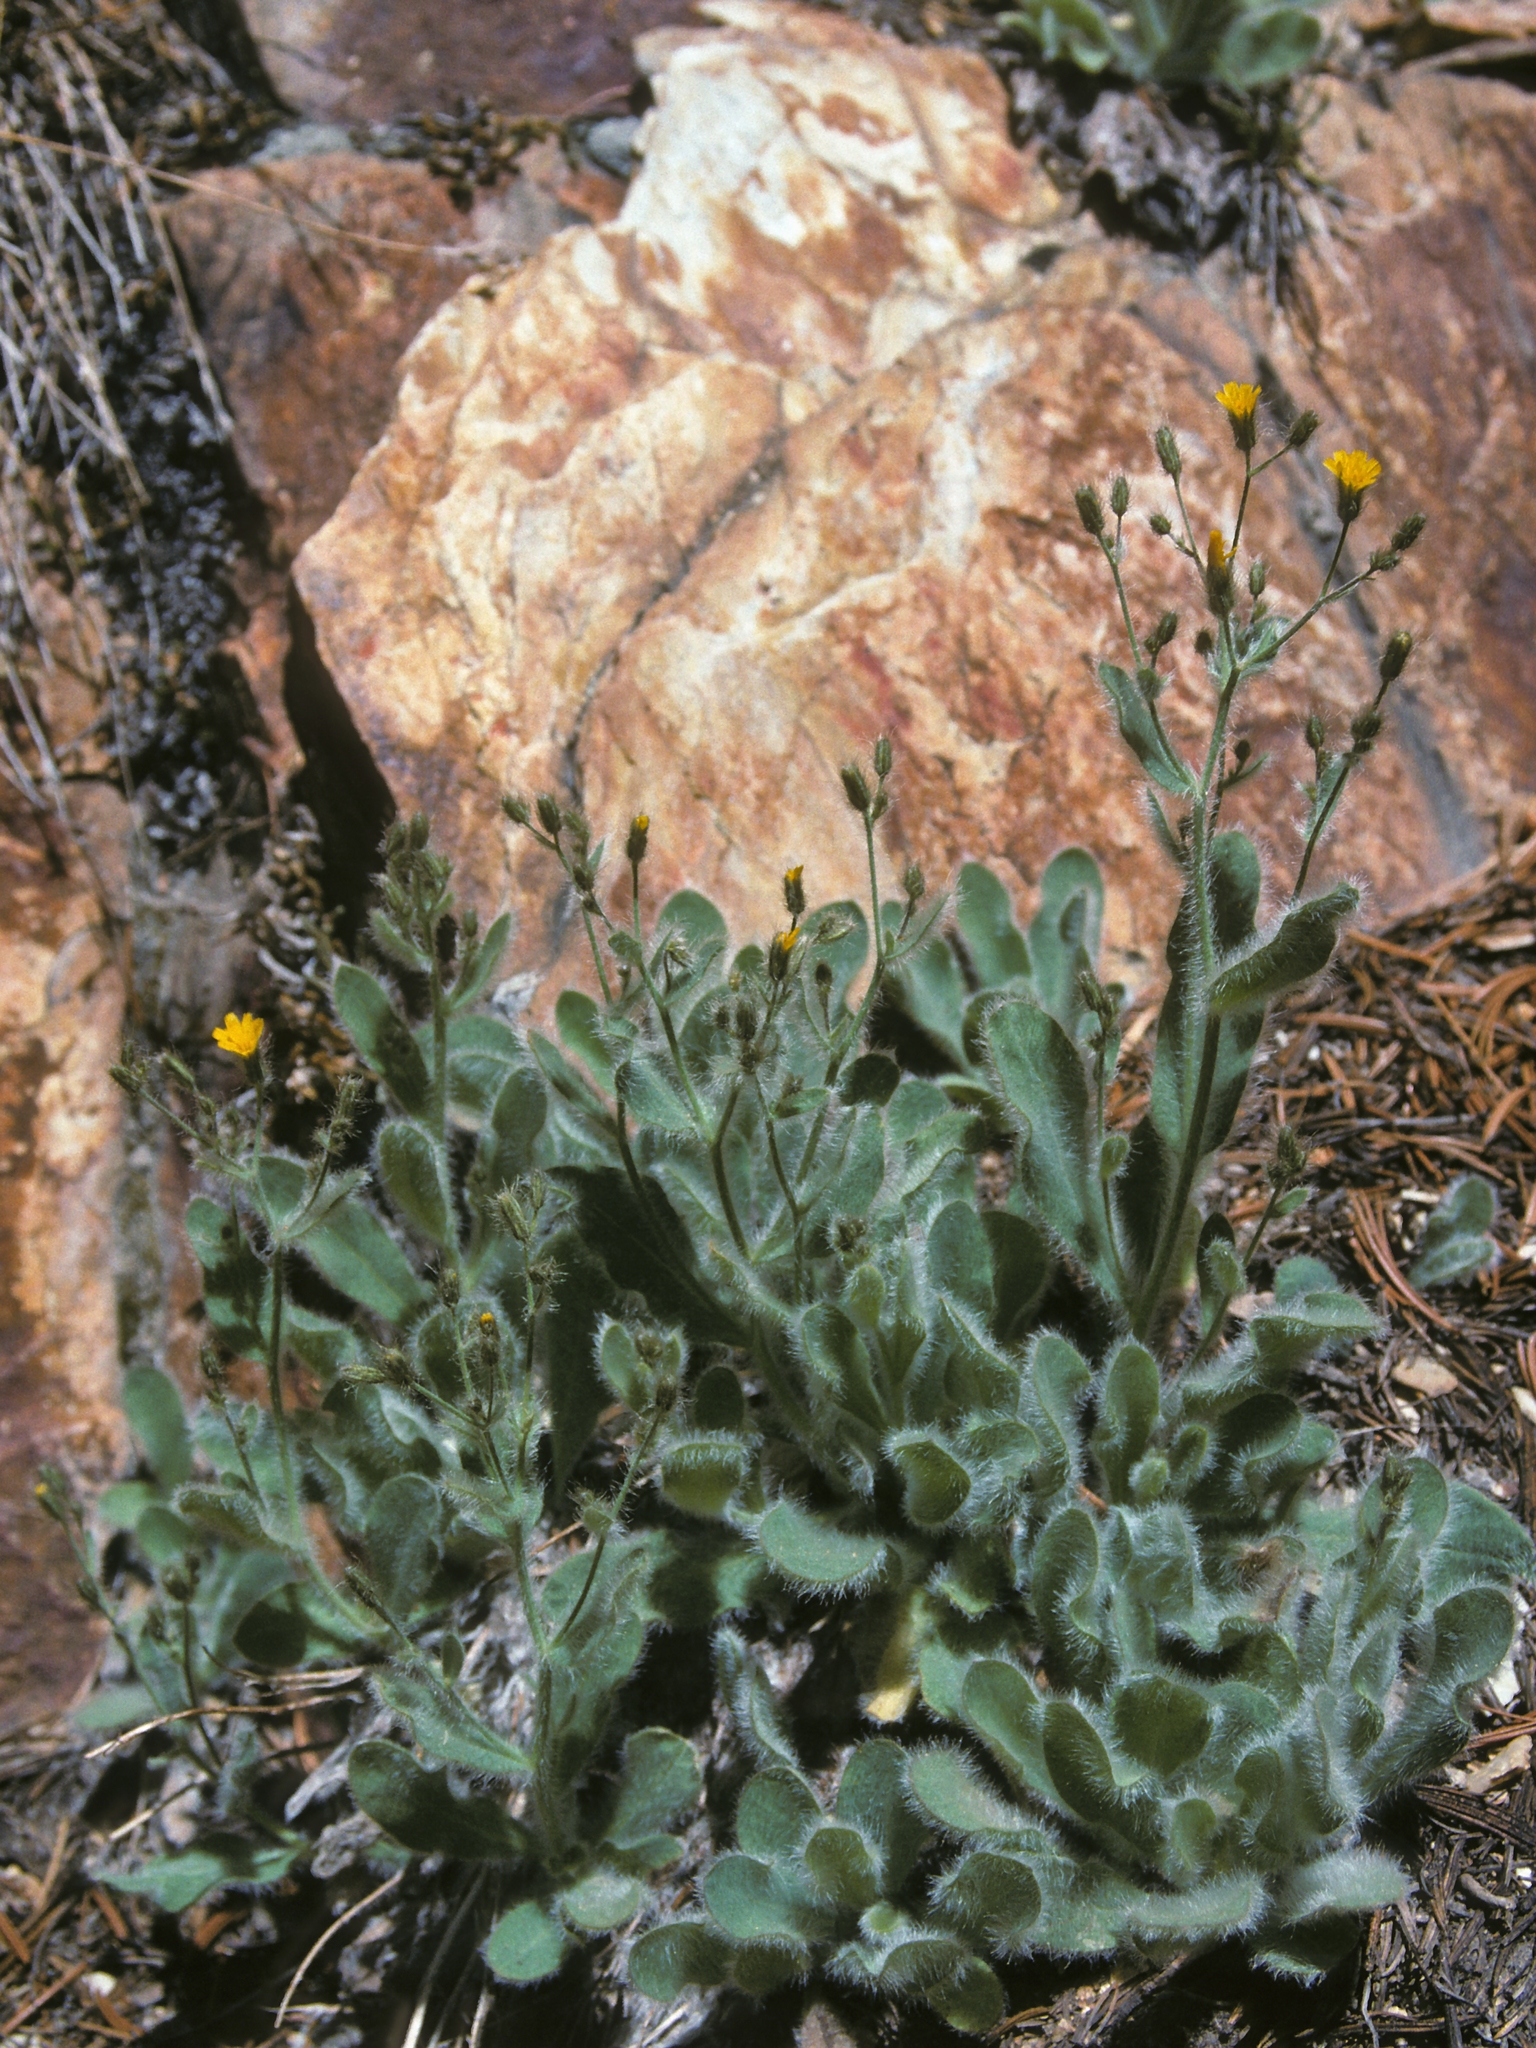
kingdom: Plantae
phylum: Tracheophyta
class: Magnoliopsida
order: Asterales
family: Asteraceae
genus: Hieracium
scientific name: Hieracium horridum
